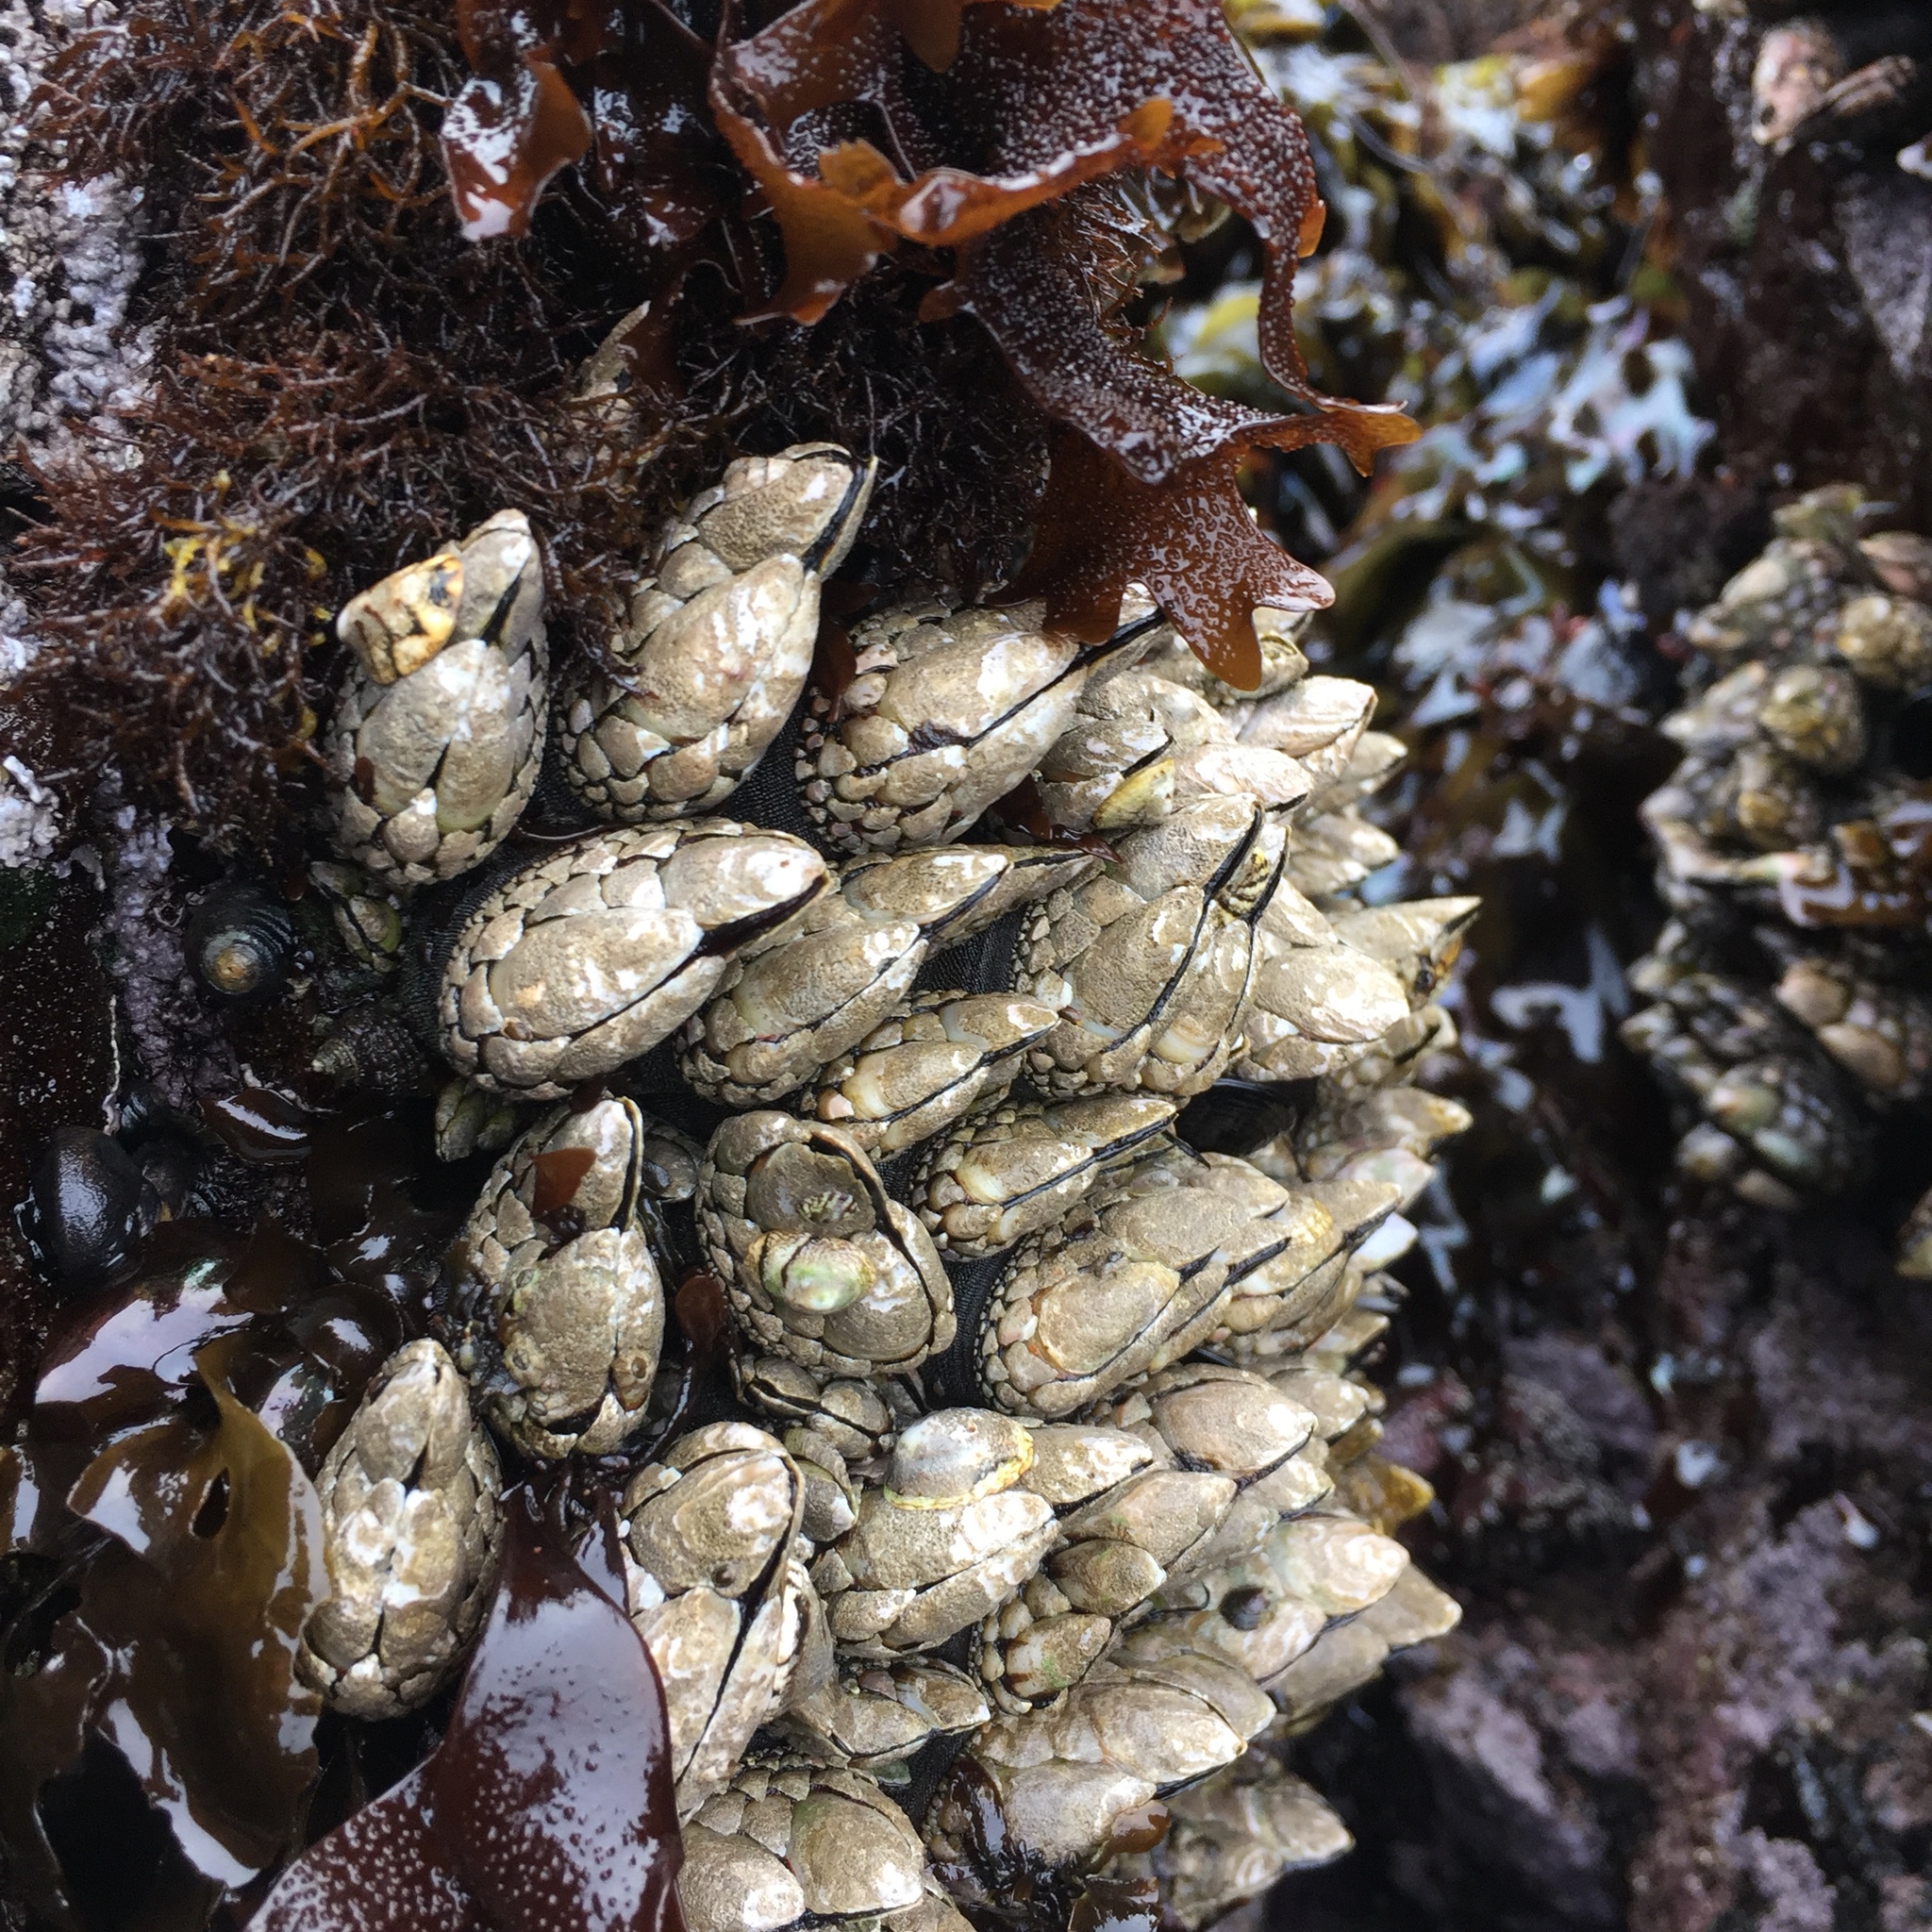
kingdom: Plantae
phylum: Rhodophyta
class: Florideophyceae
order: Gigartinales
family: Phyllophoraceae
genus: Mastocarpus
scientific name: Mastocarpus papillatus
